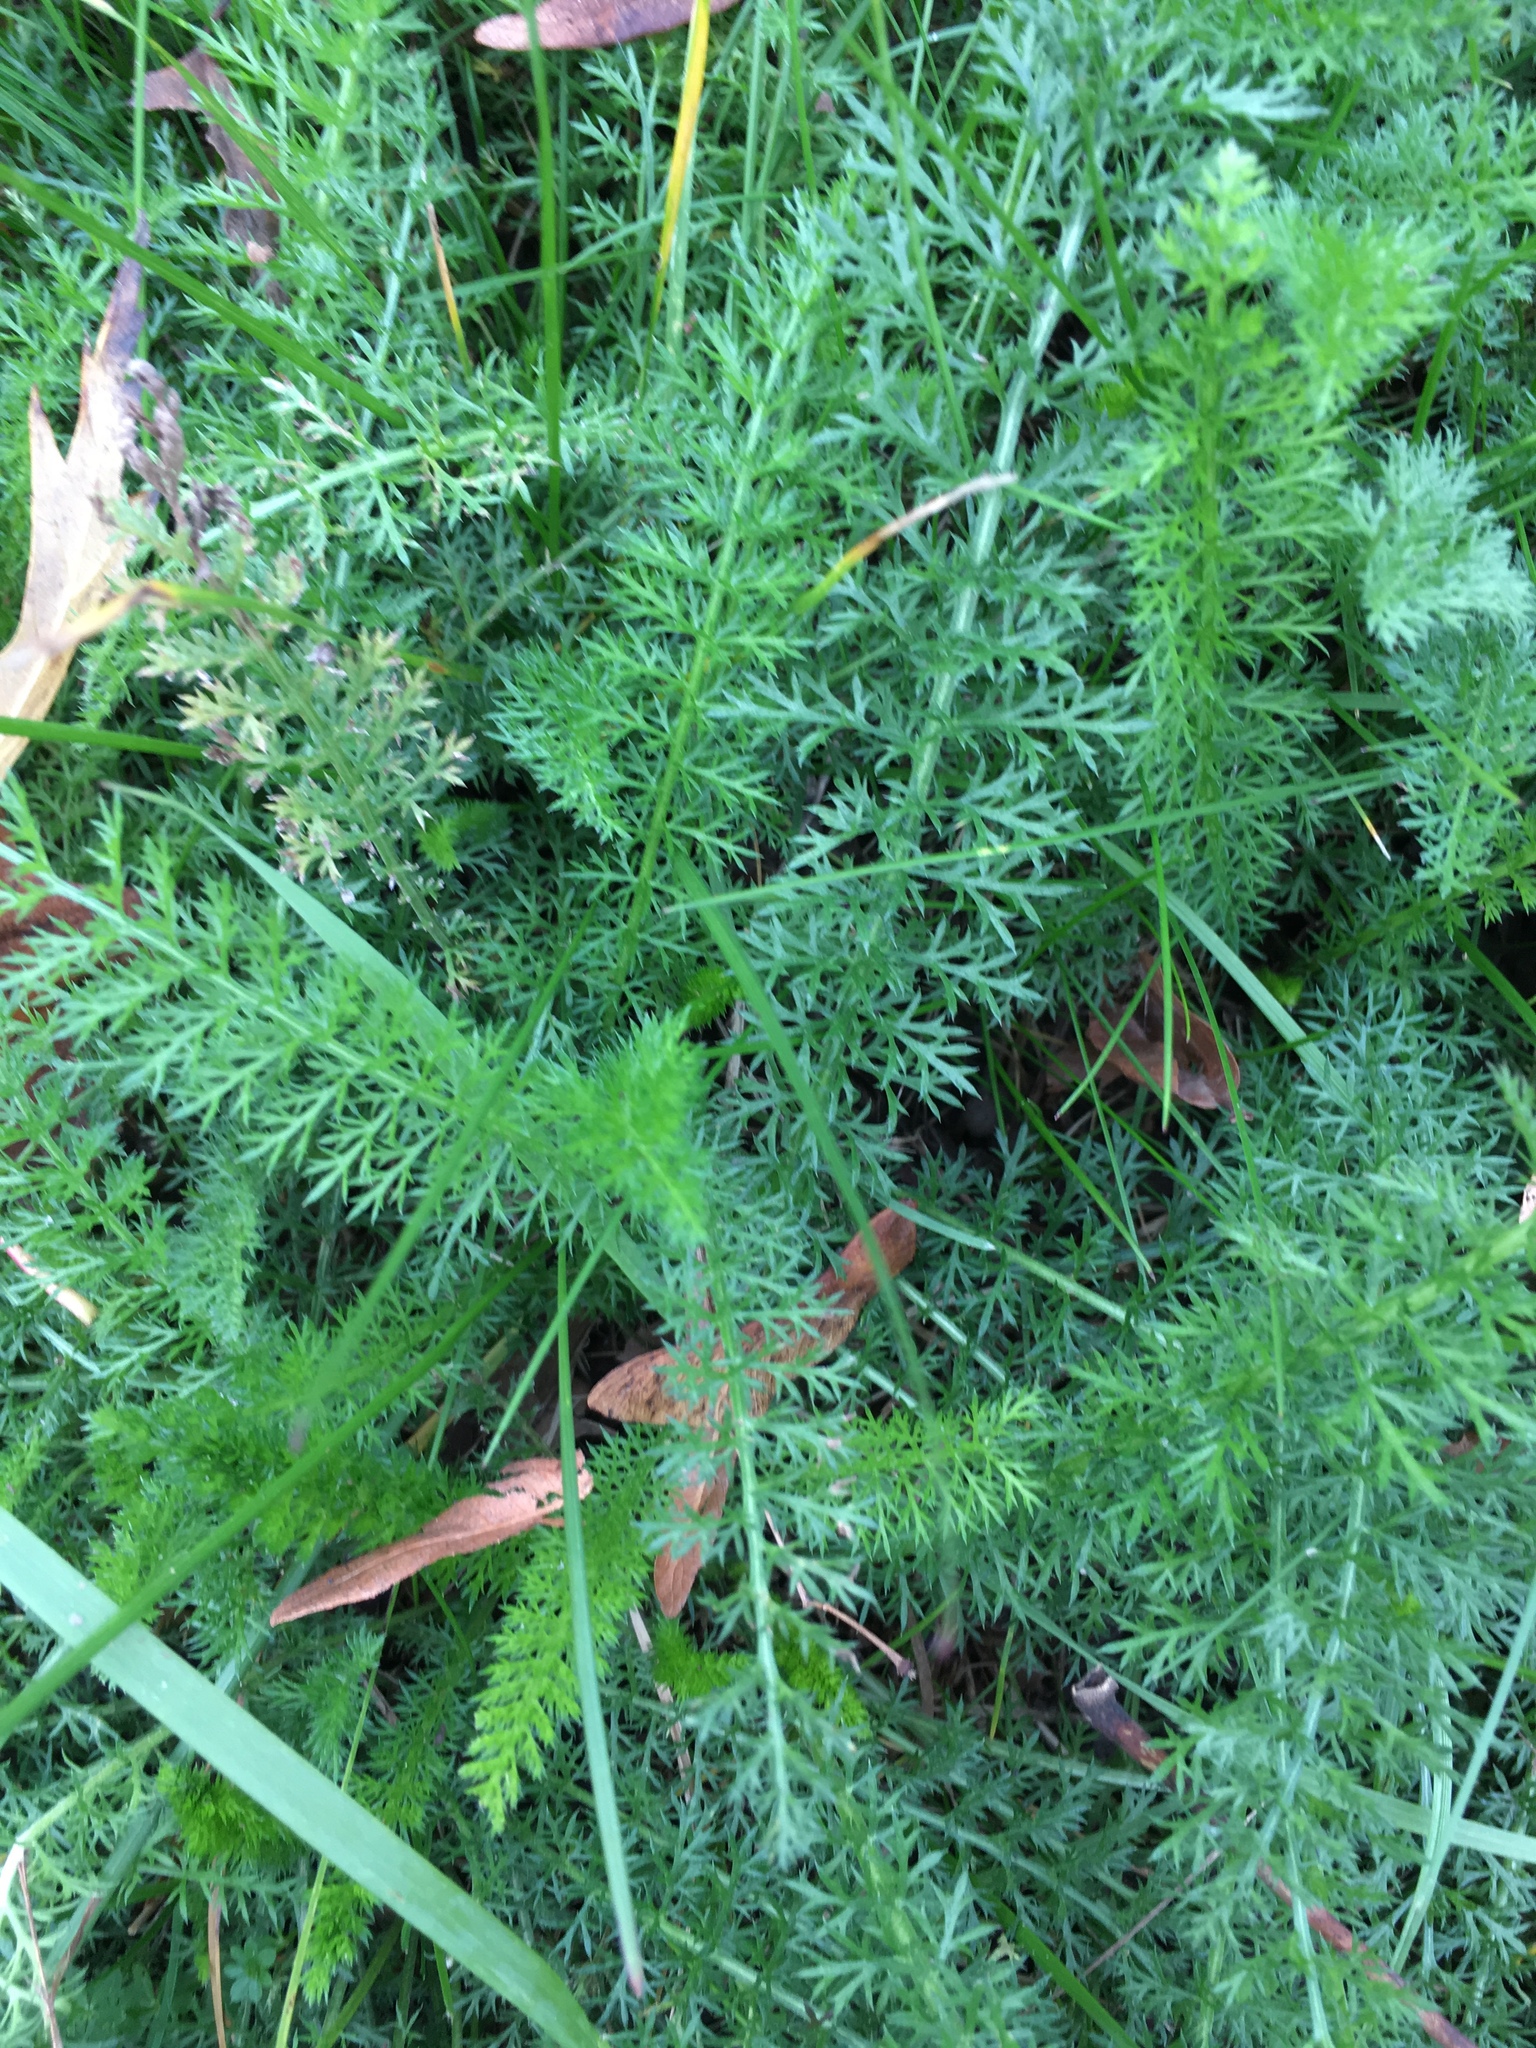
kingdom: Plantae
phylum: Tracheophyta
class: Magnoliopsida
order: Asterales
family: Asteraceae
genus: Achillea
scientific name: Achillea millefolium
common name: Yarrow
